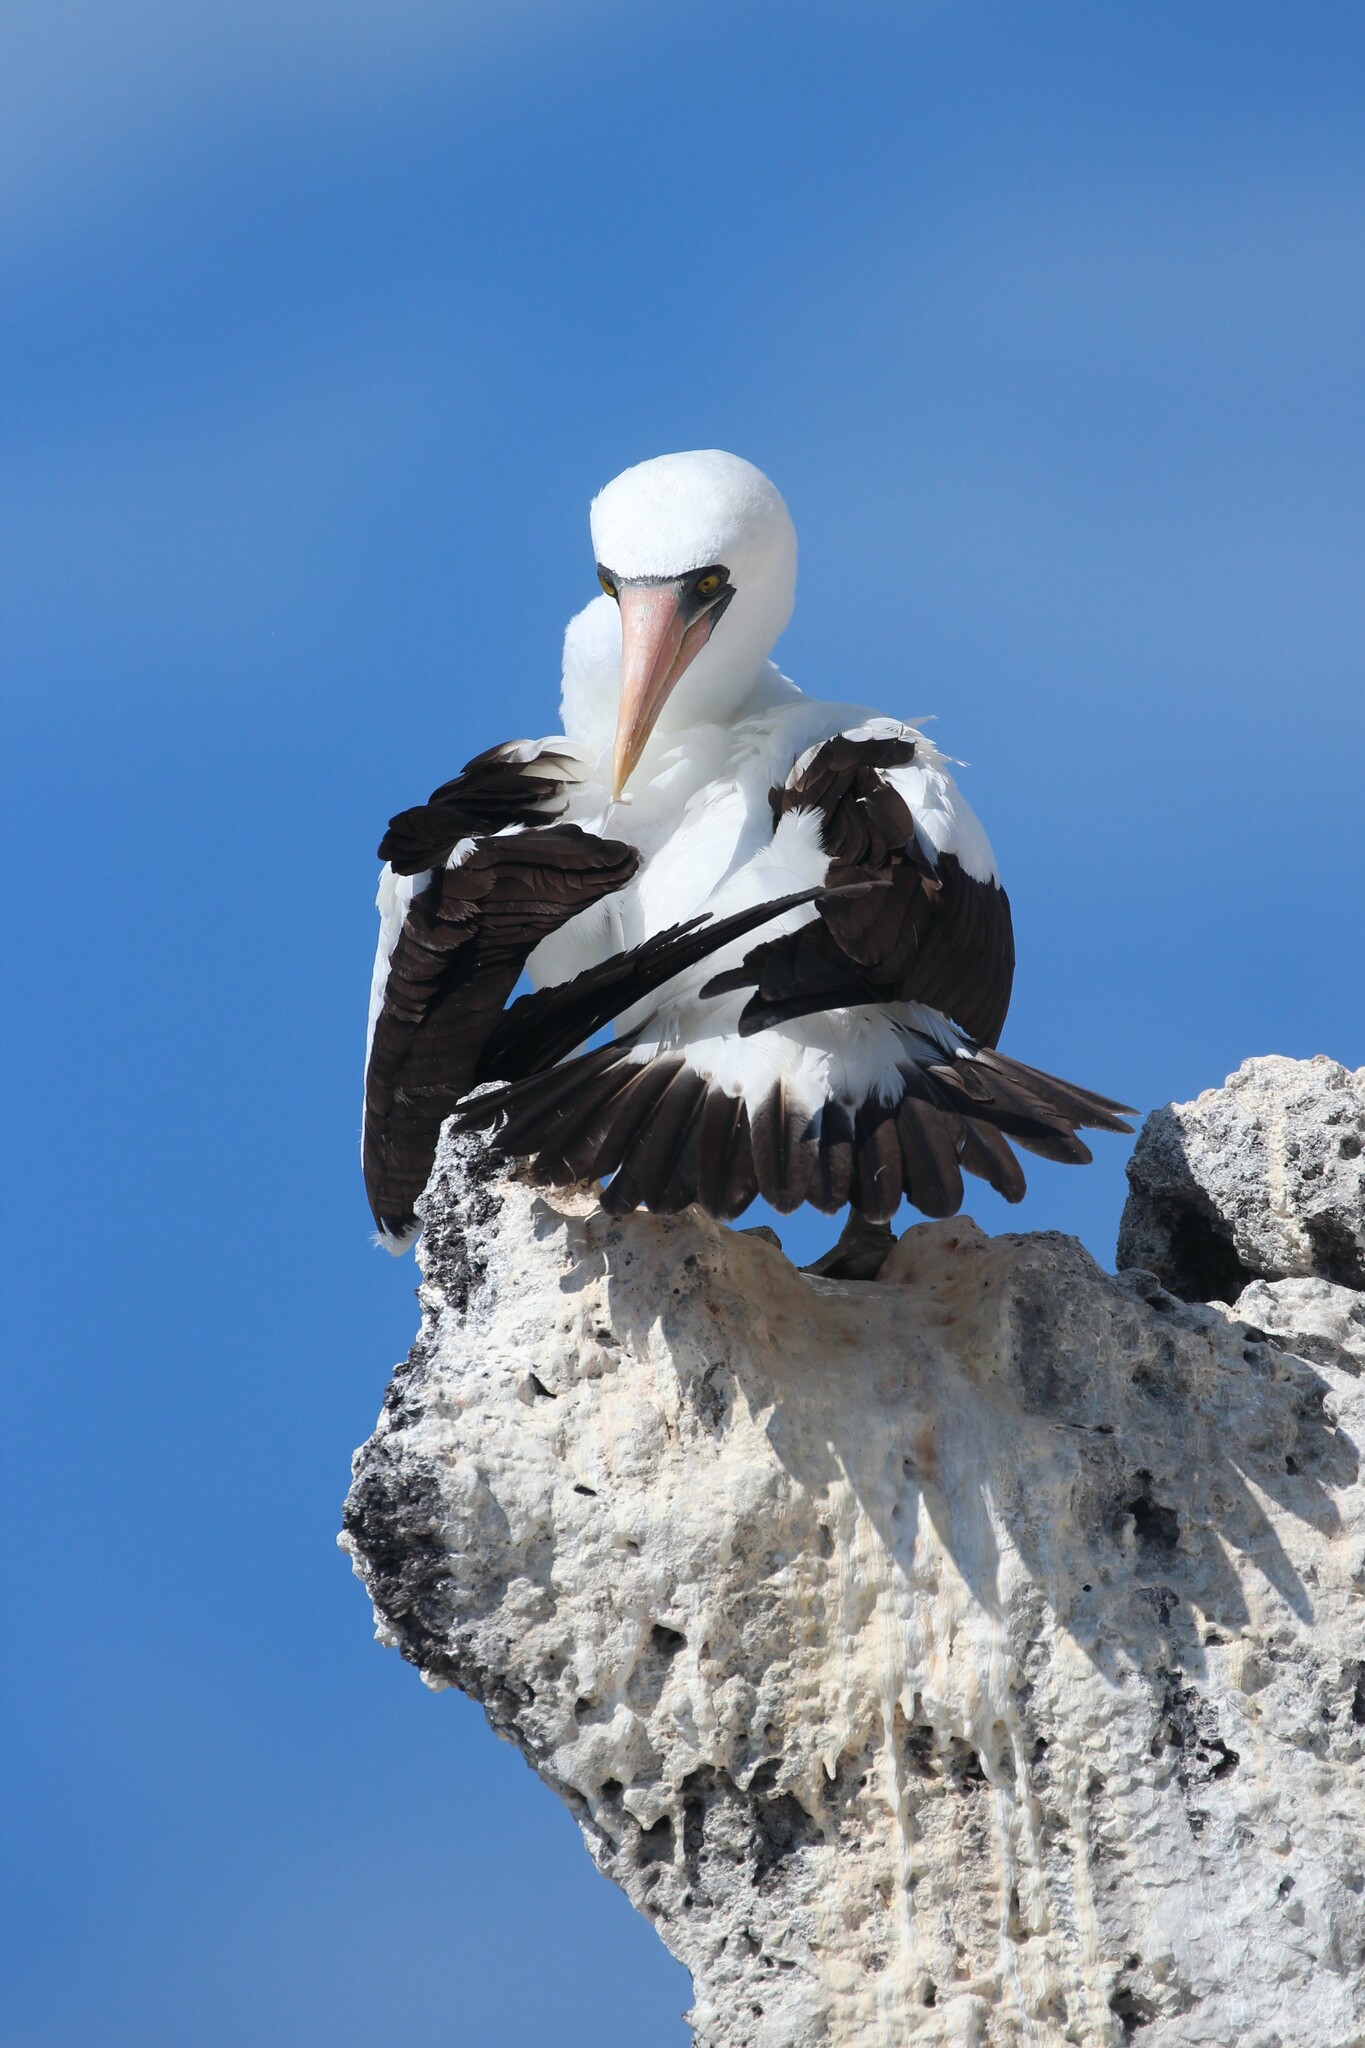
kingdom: Animalia
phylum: Chordata
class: Aves
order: Suliformes
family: Sulidae
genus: Sula
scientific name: Sula granti
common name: Nazca booby
